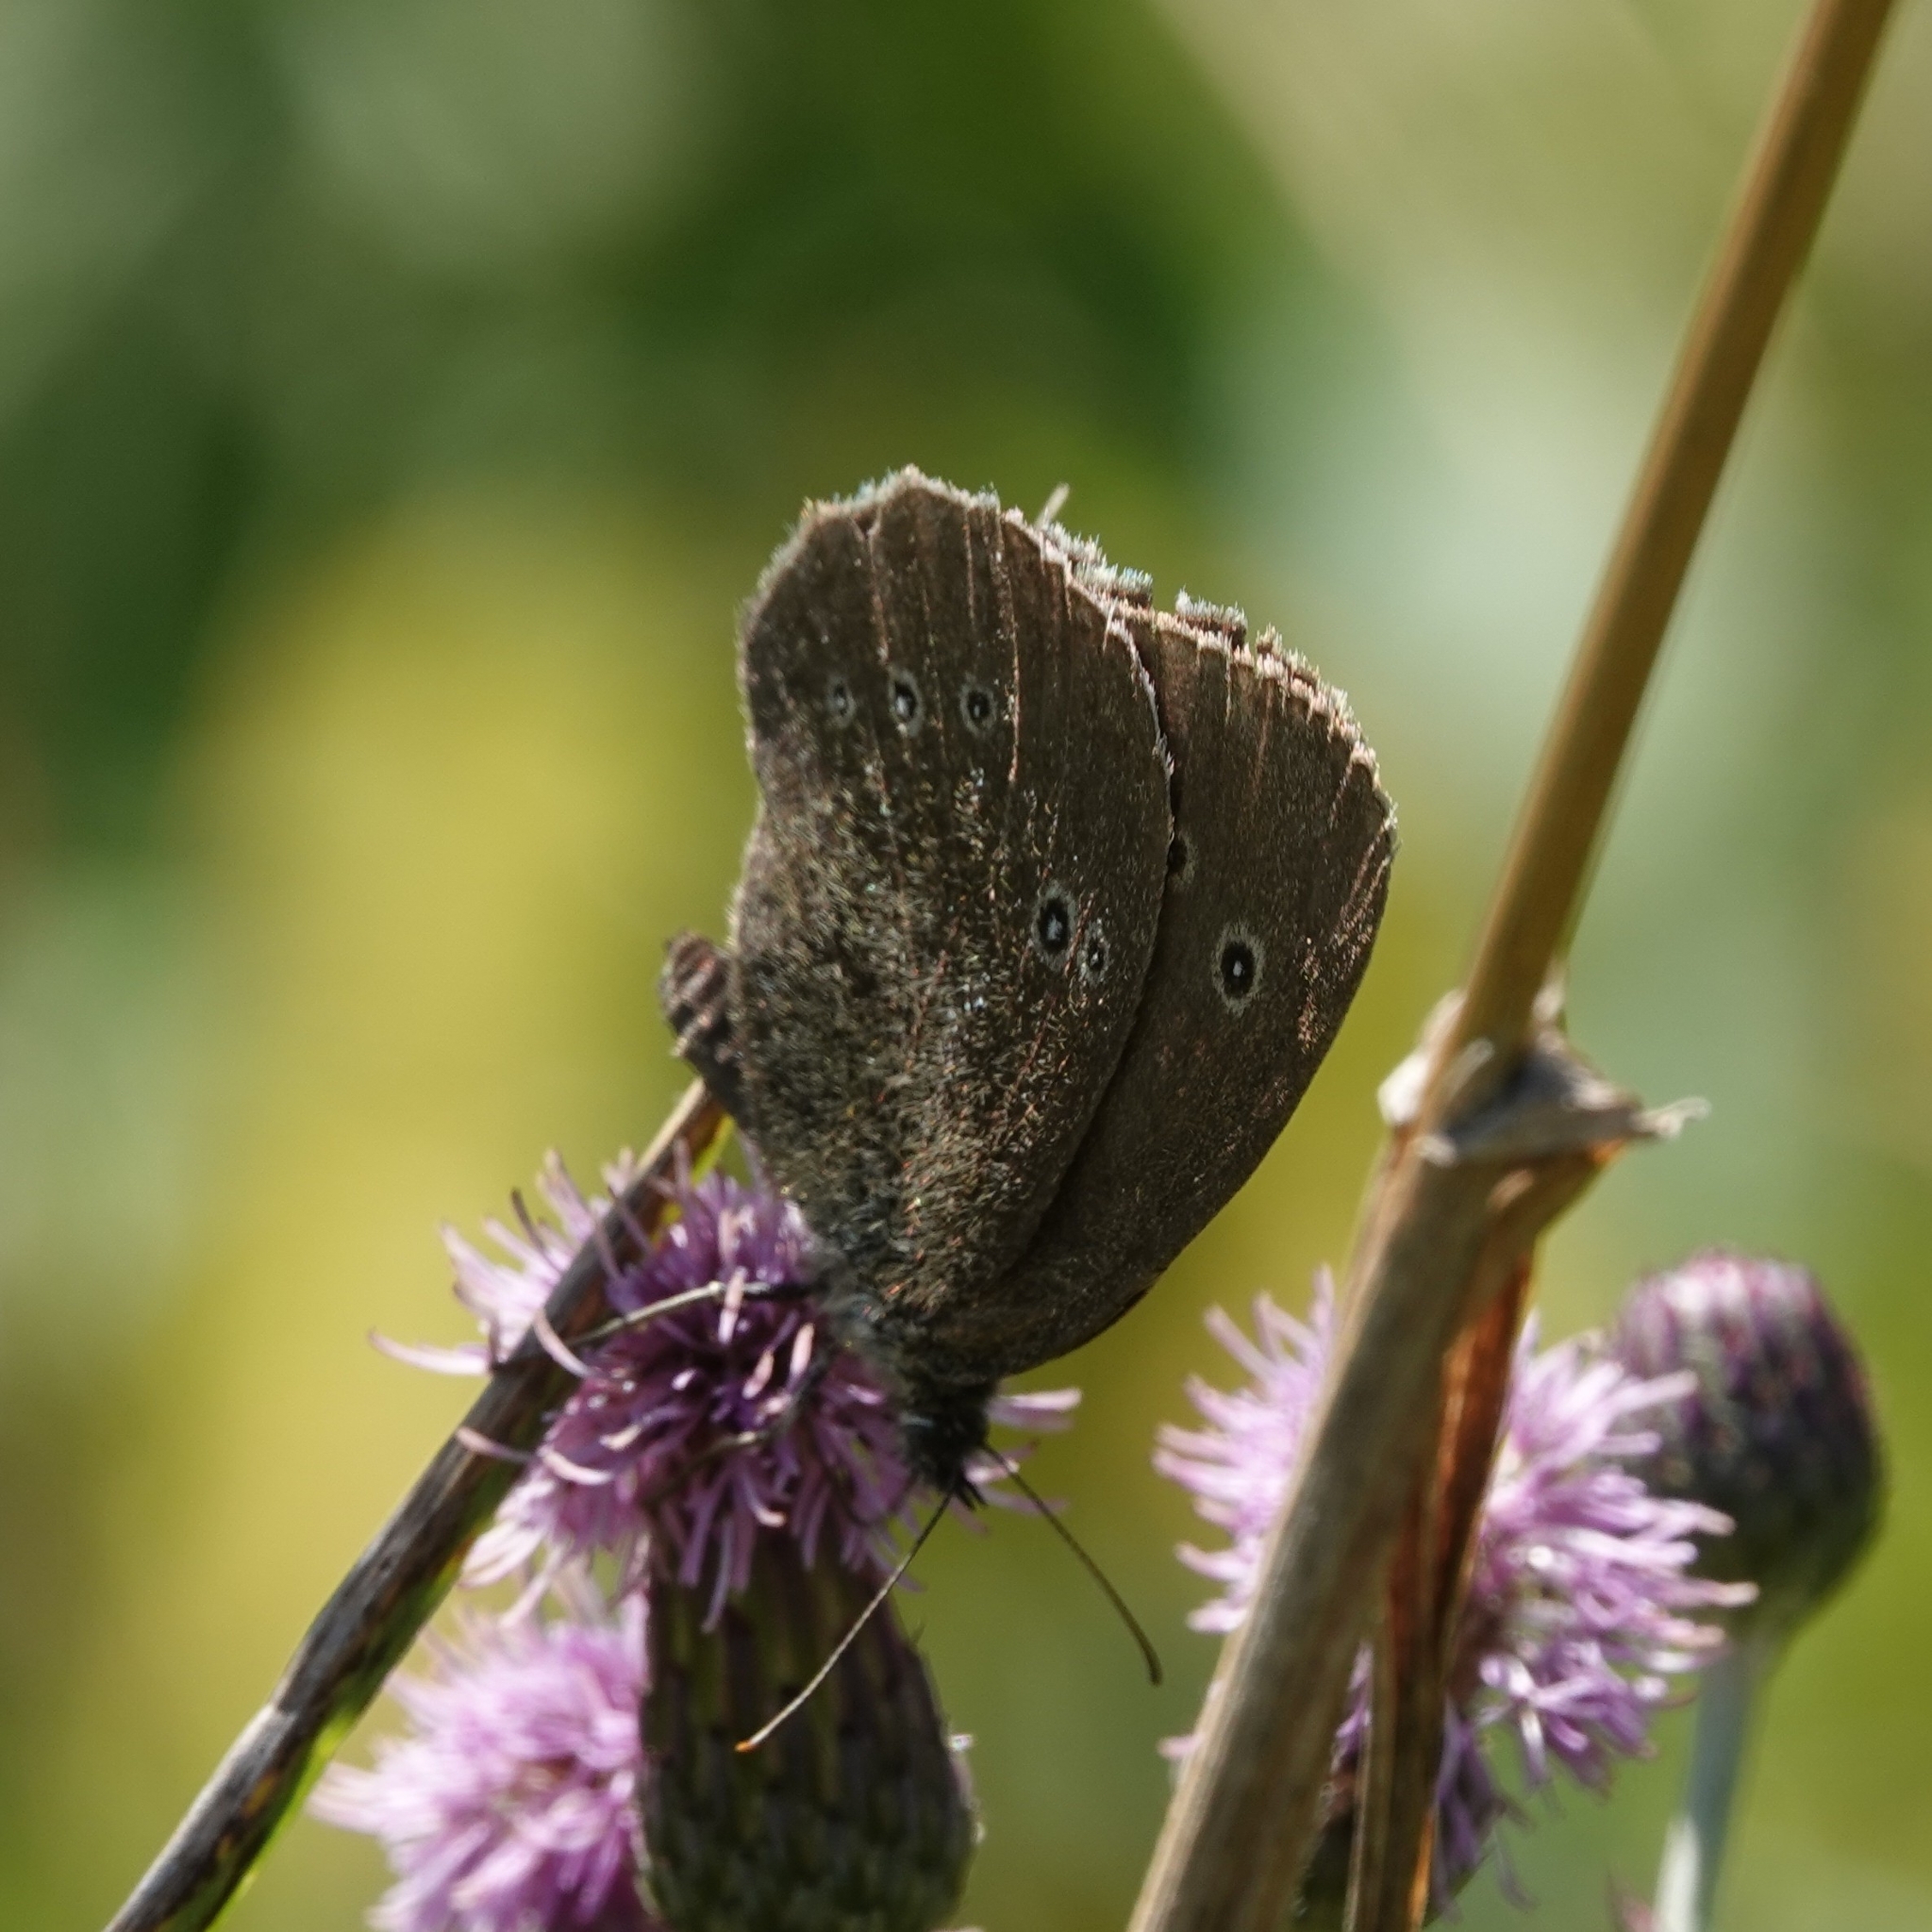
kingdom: Animalia
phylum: Arthropoda
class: Insecta
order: Lepidoptera
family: Nymphalidae
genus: Aphantopus
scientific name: Aphantopus hyperantus
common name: Ringlet
